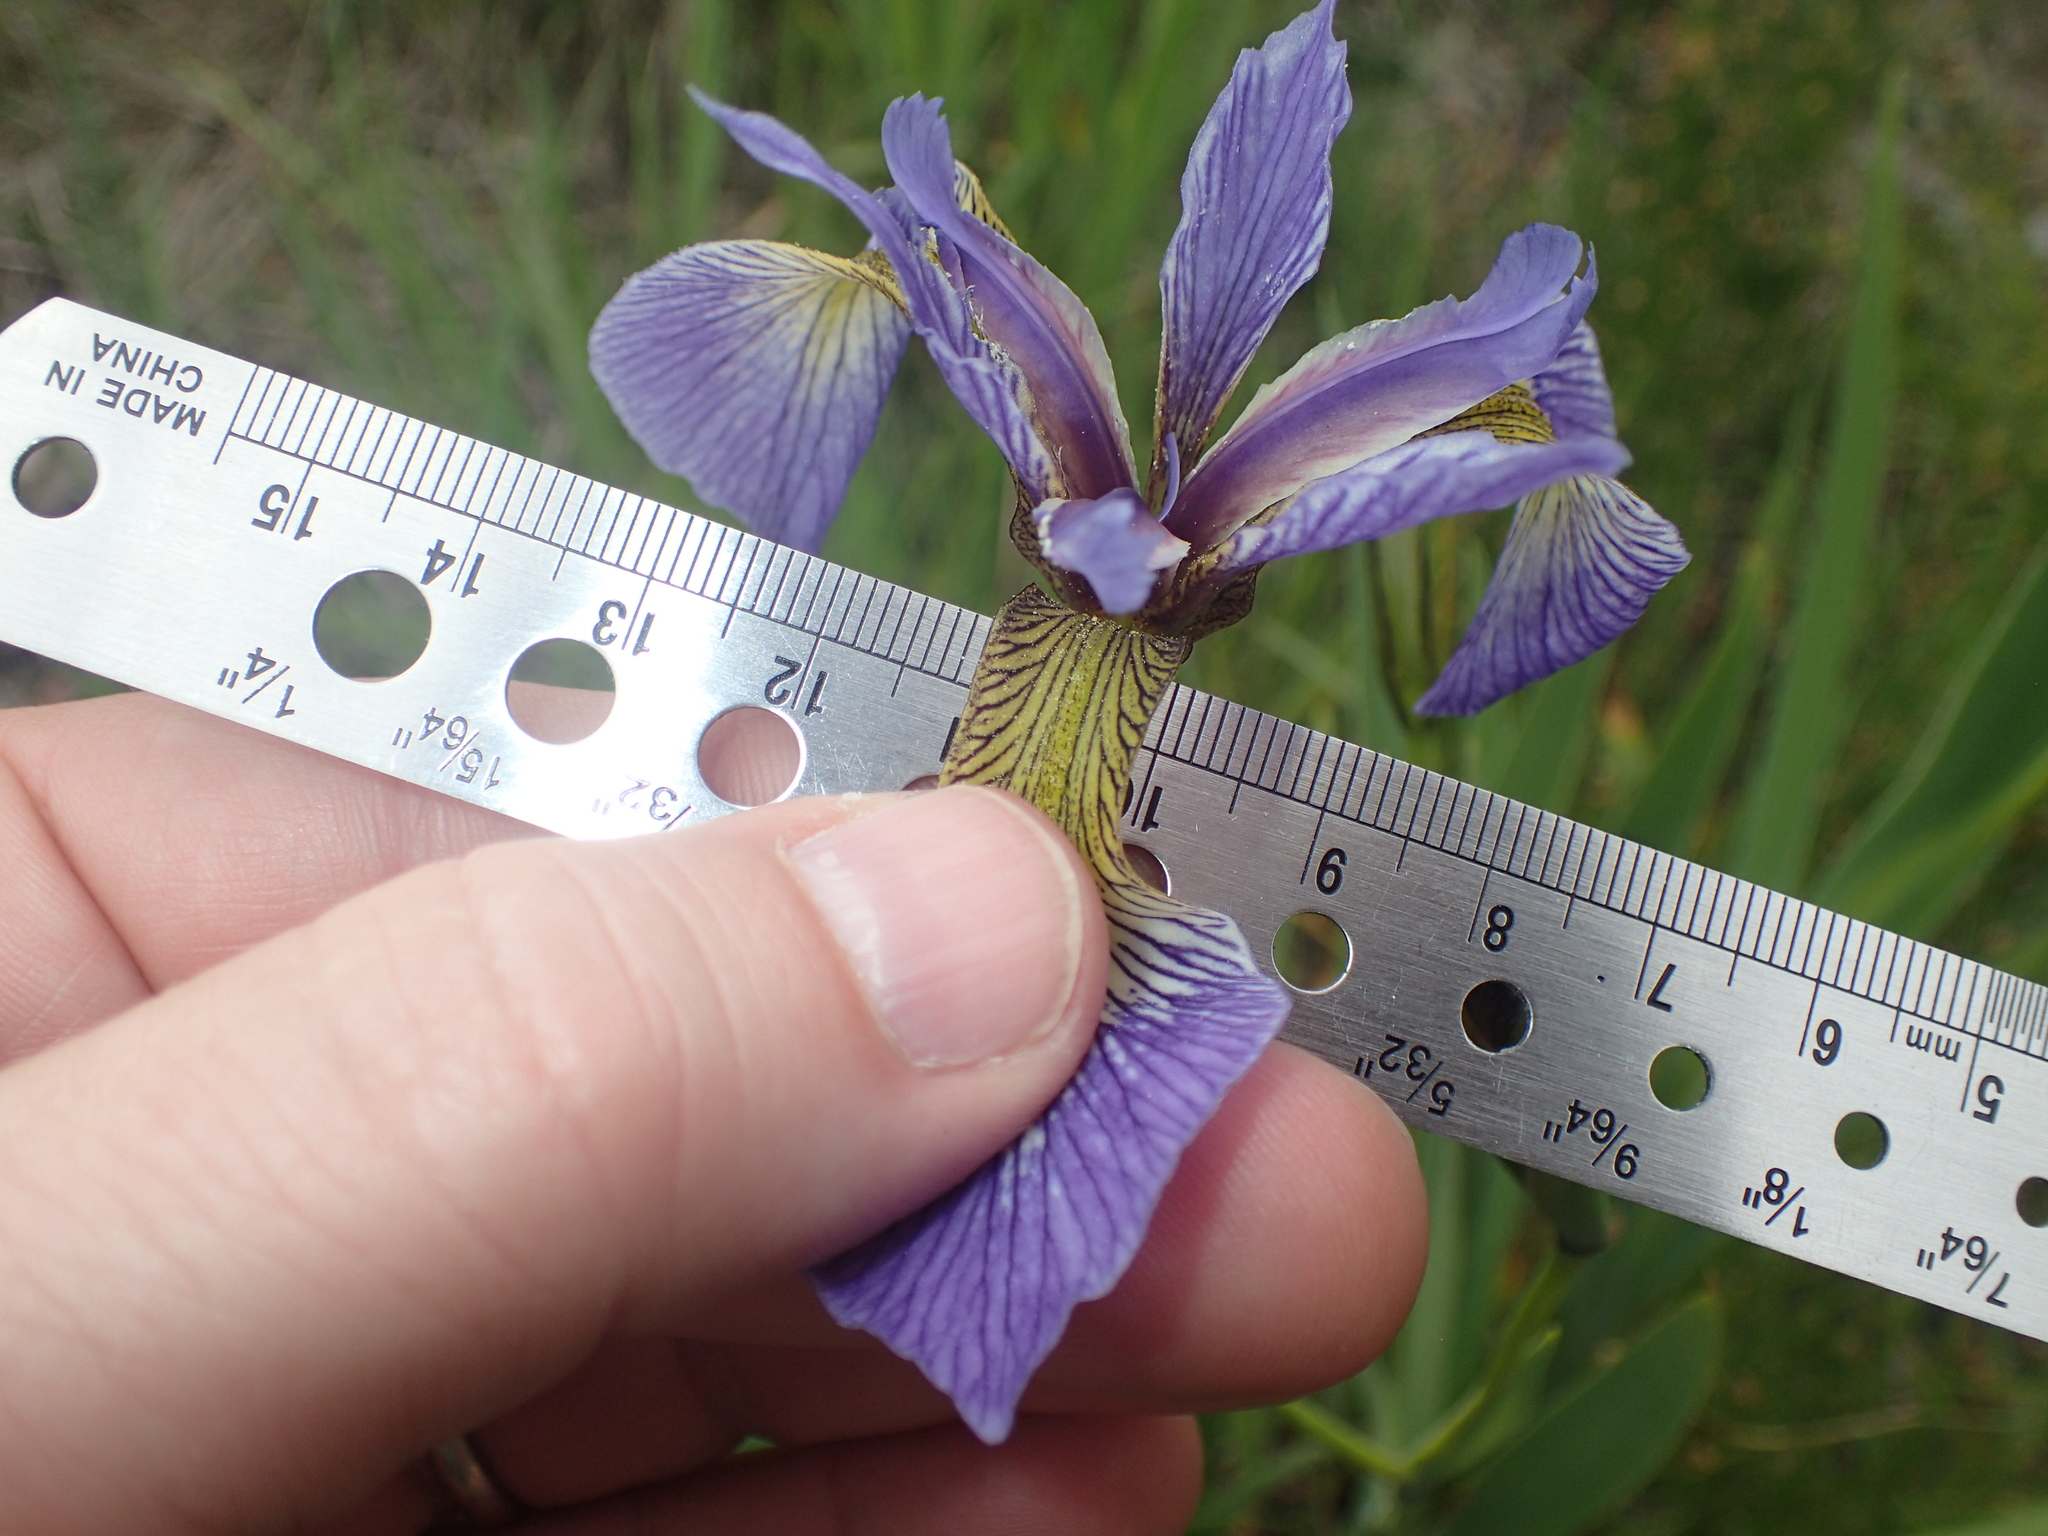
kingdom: Plantae
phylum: Tracheophyta
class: Liliopsida
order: Asparagales
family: Iridaceae
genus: Iris
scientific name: Iris versicolor
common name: Purple iris
